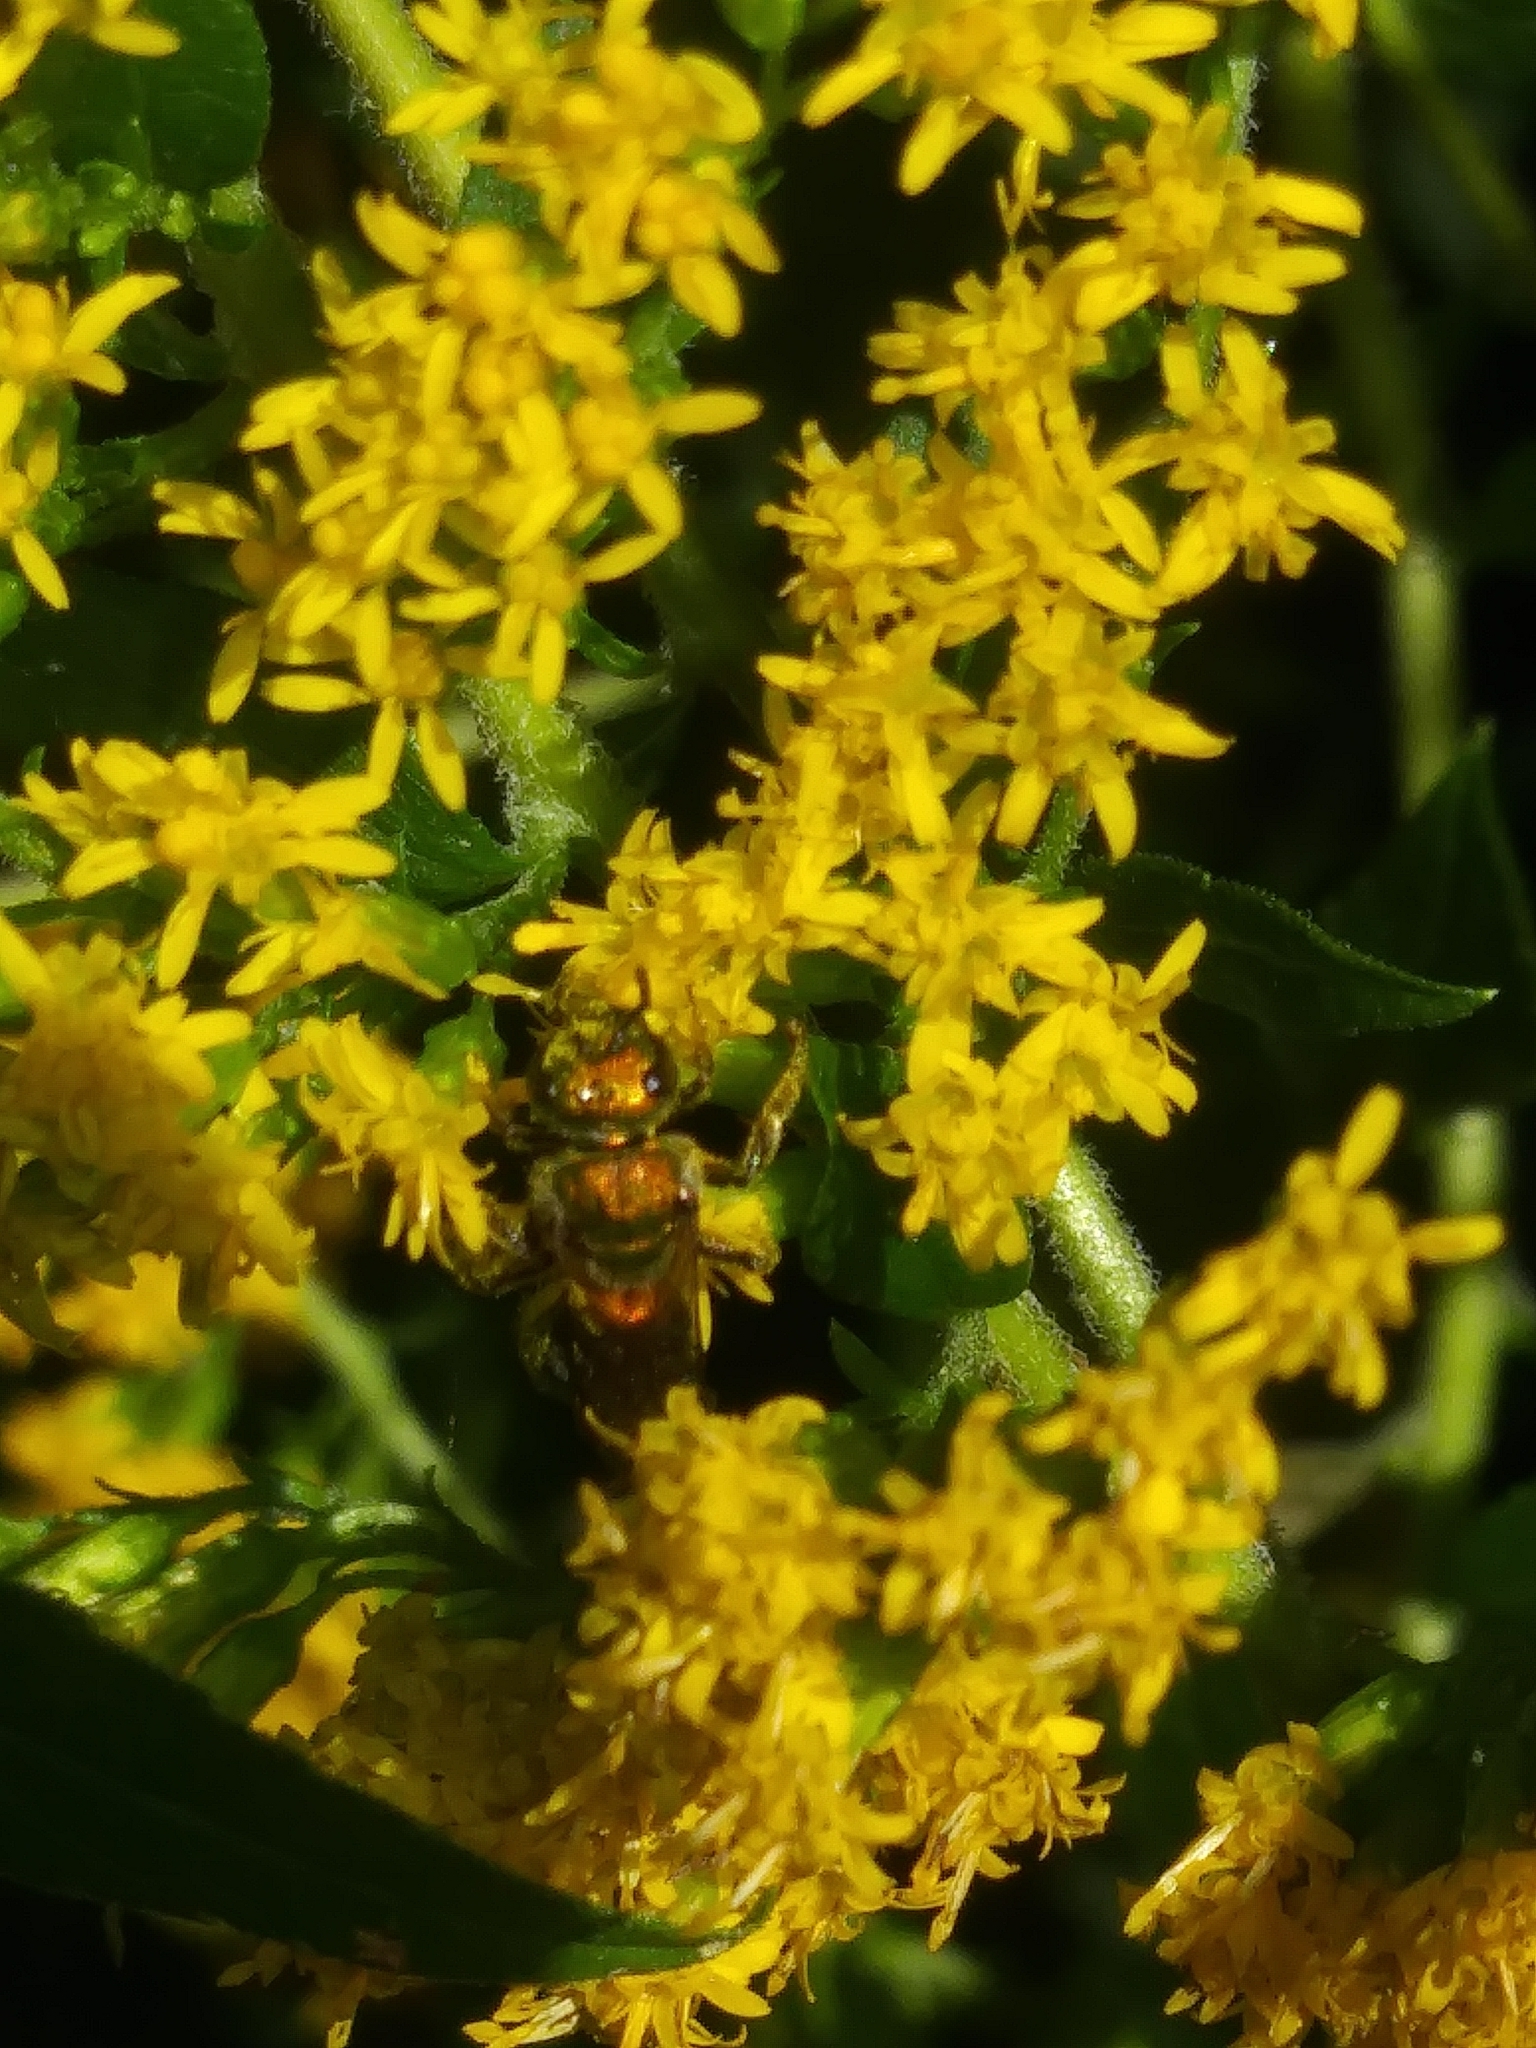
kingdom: Animalia
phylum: Arthropoda
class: Insecta
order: Hymenoptera
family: Halictidae
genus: Augochlora
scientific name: Augochlora pura
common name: Pure green sweat bee
